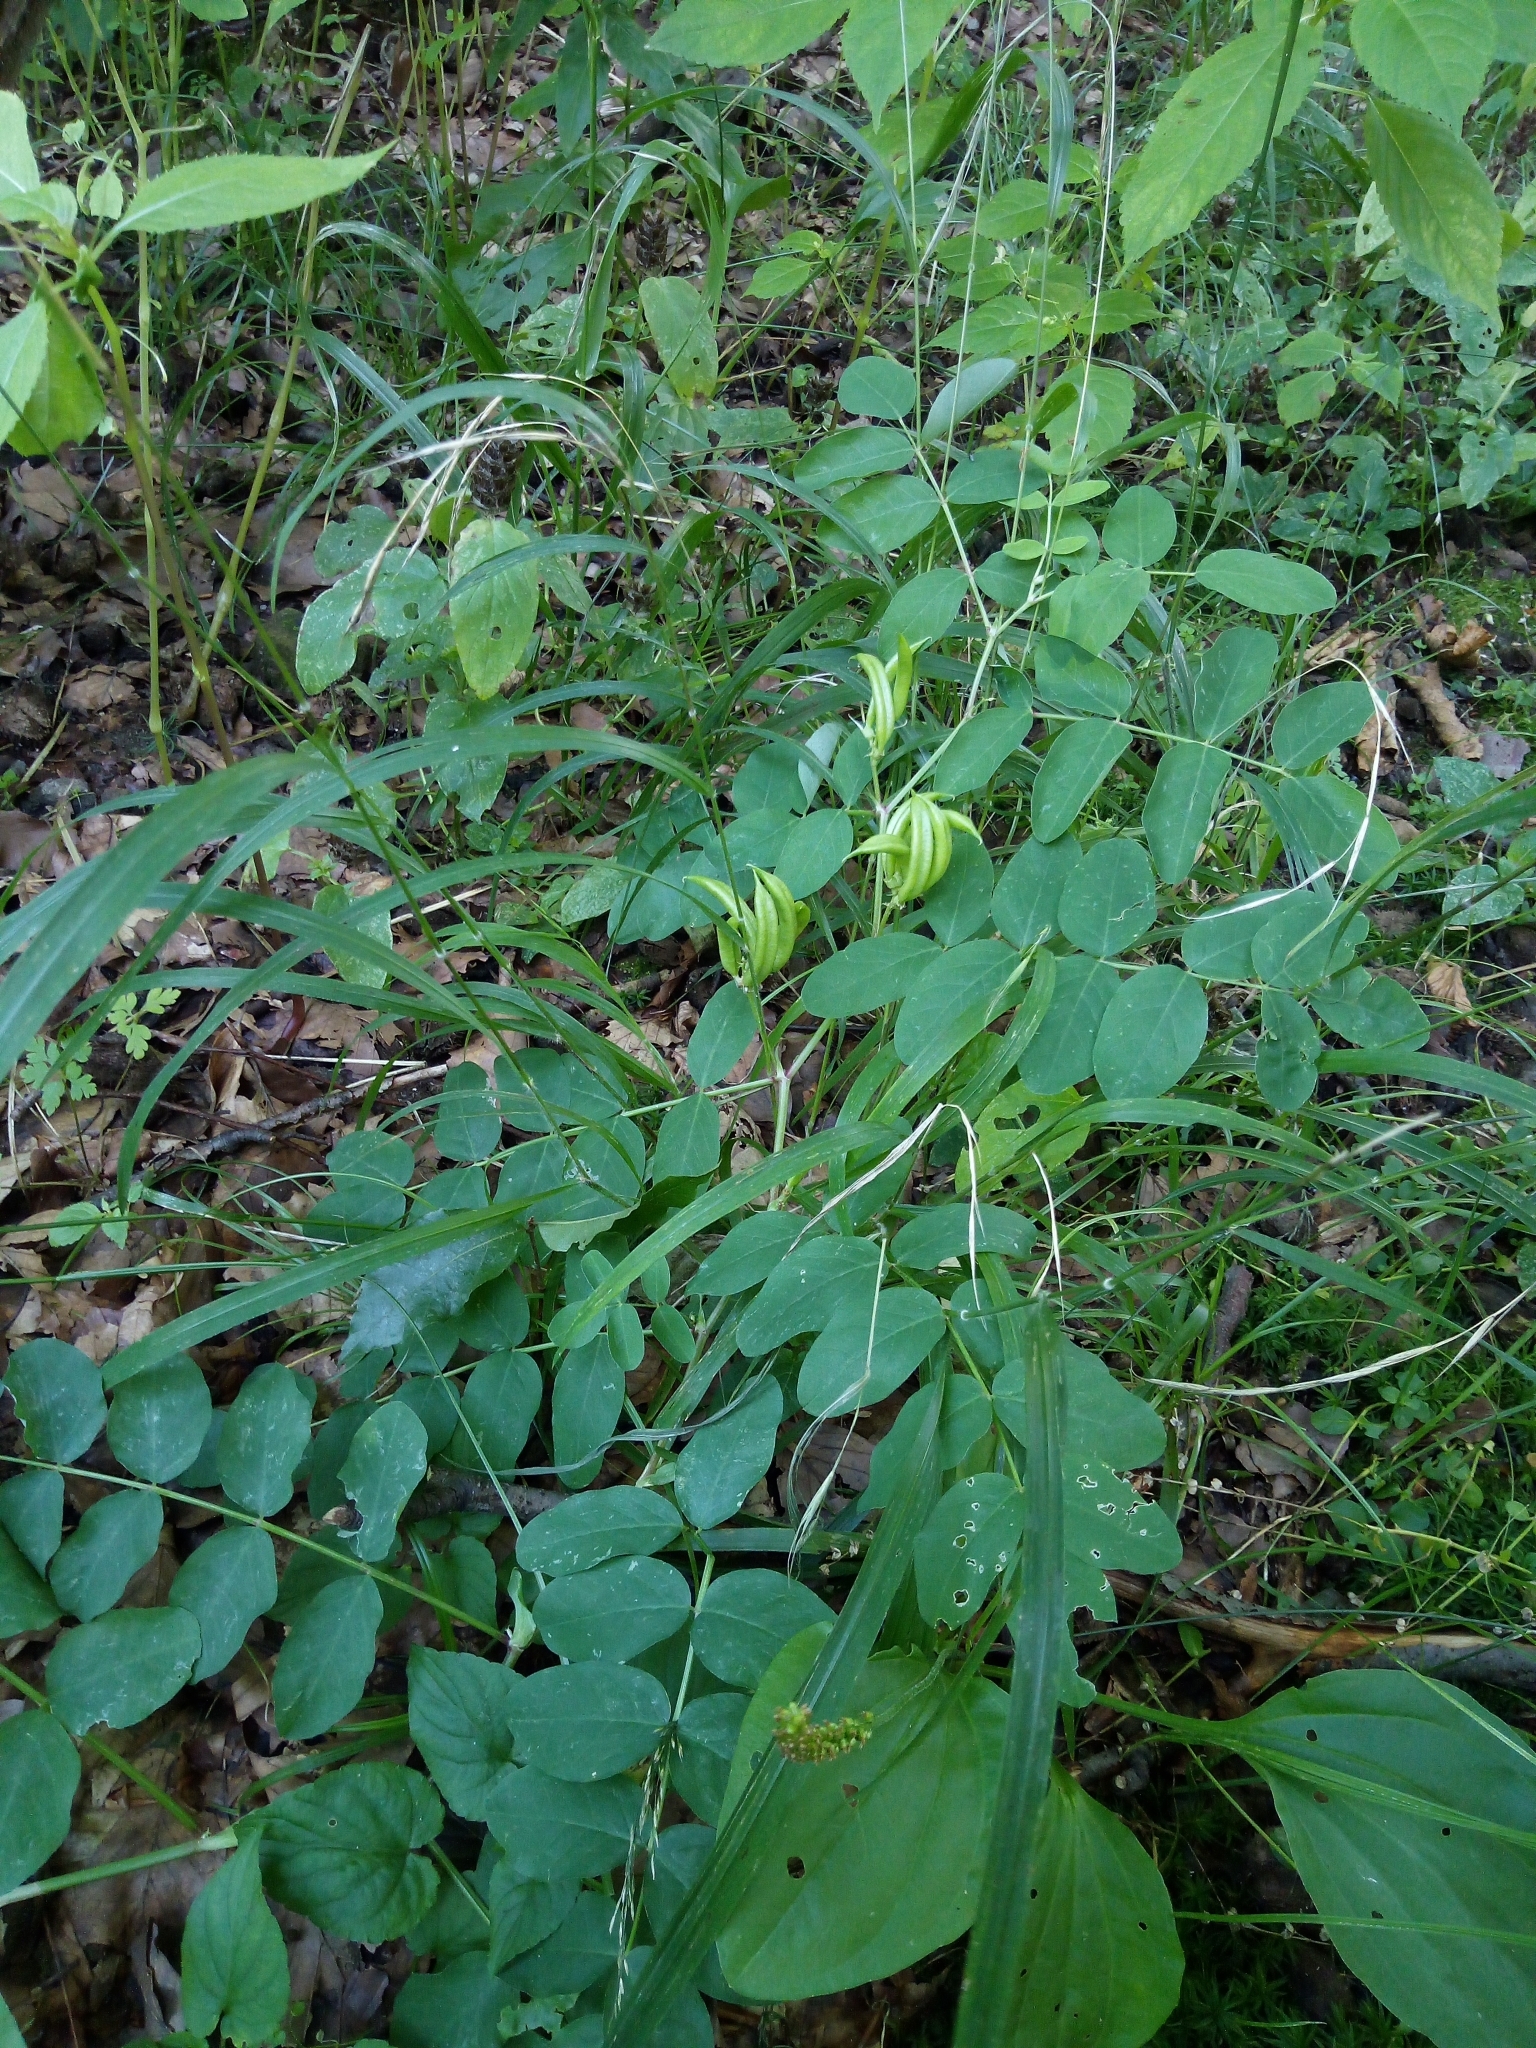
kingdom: Plantae
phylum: Tracheophyta
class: Magnoliopsida
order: Fabales
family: Fabaceae
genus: Astragalus
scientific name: Astragalus glycyphyllos
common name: Wild liquorice
